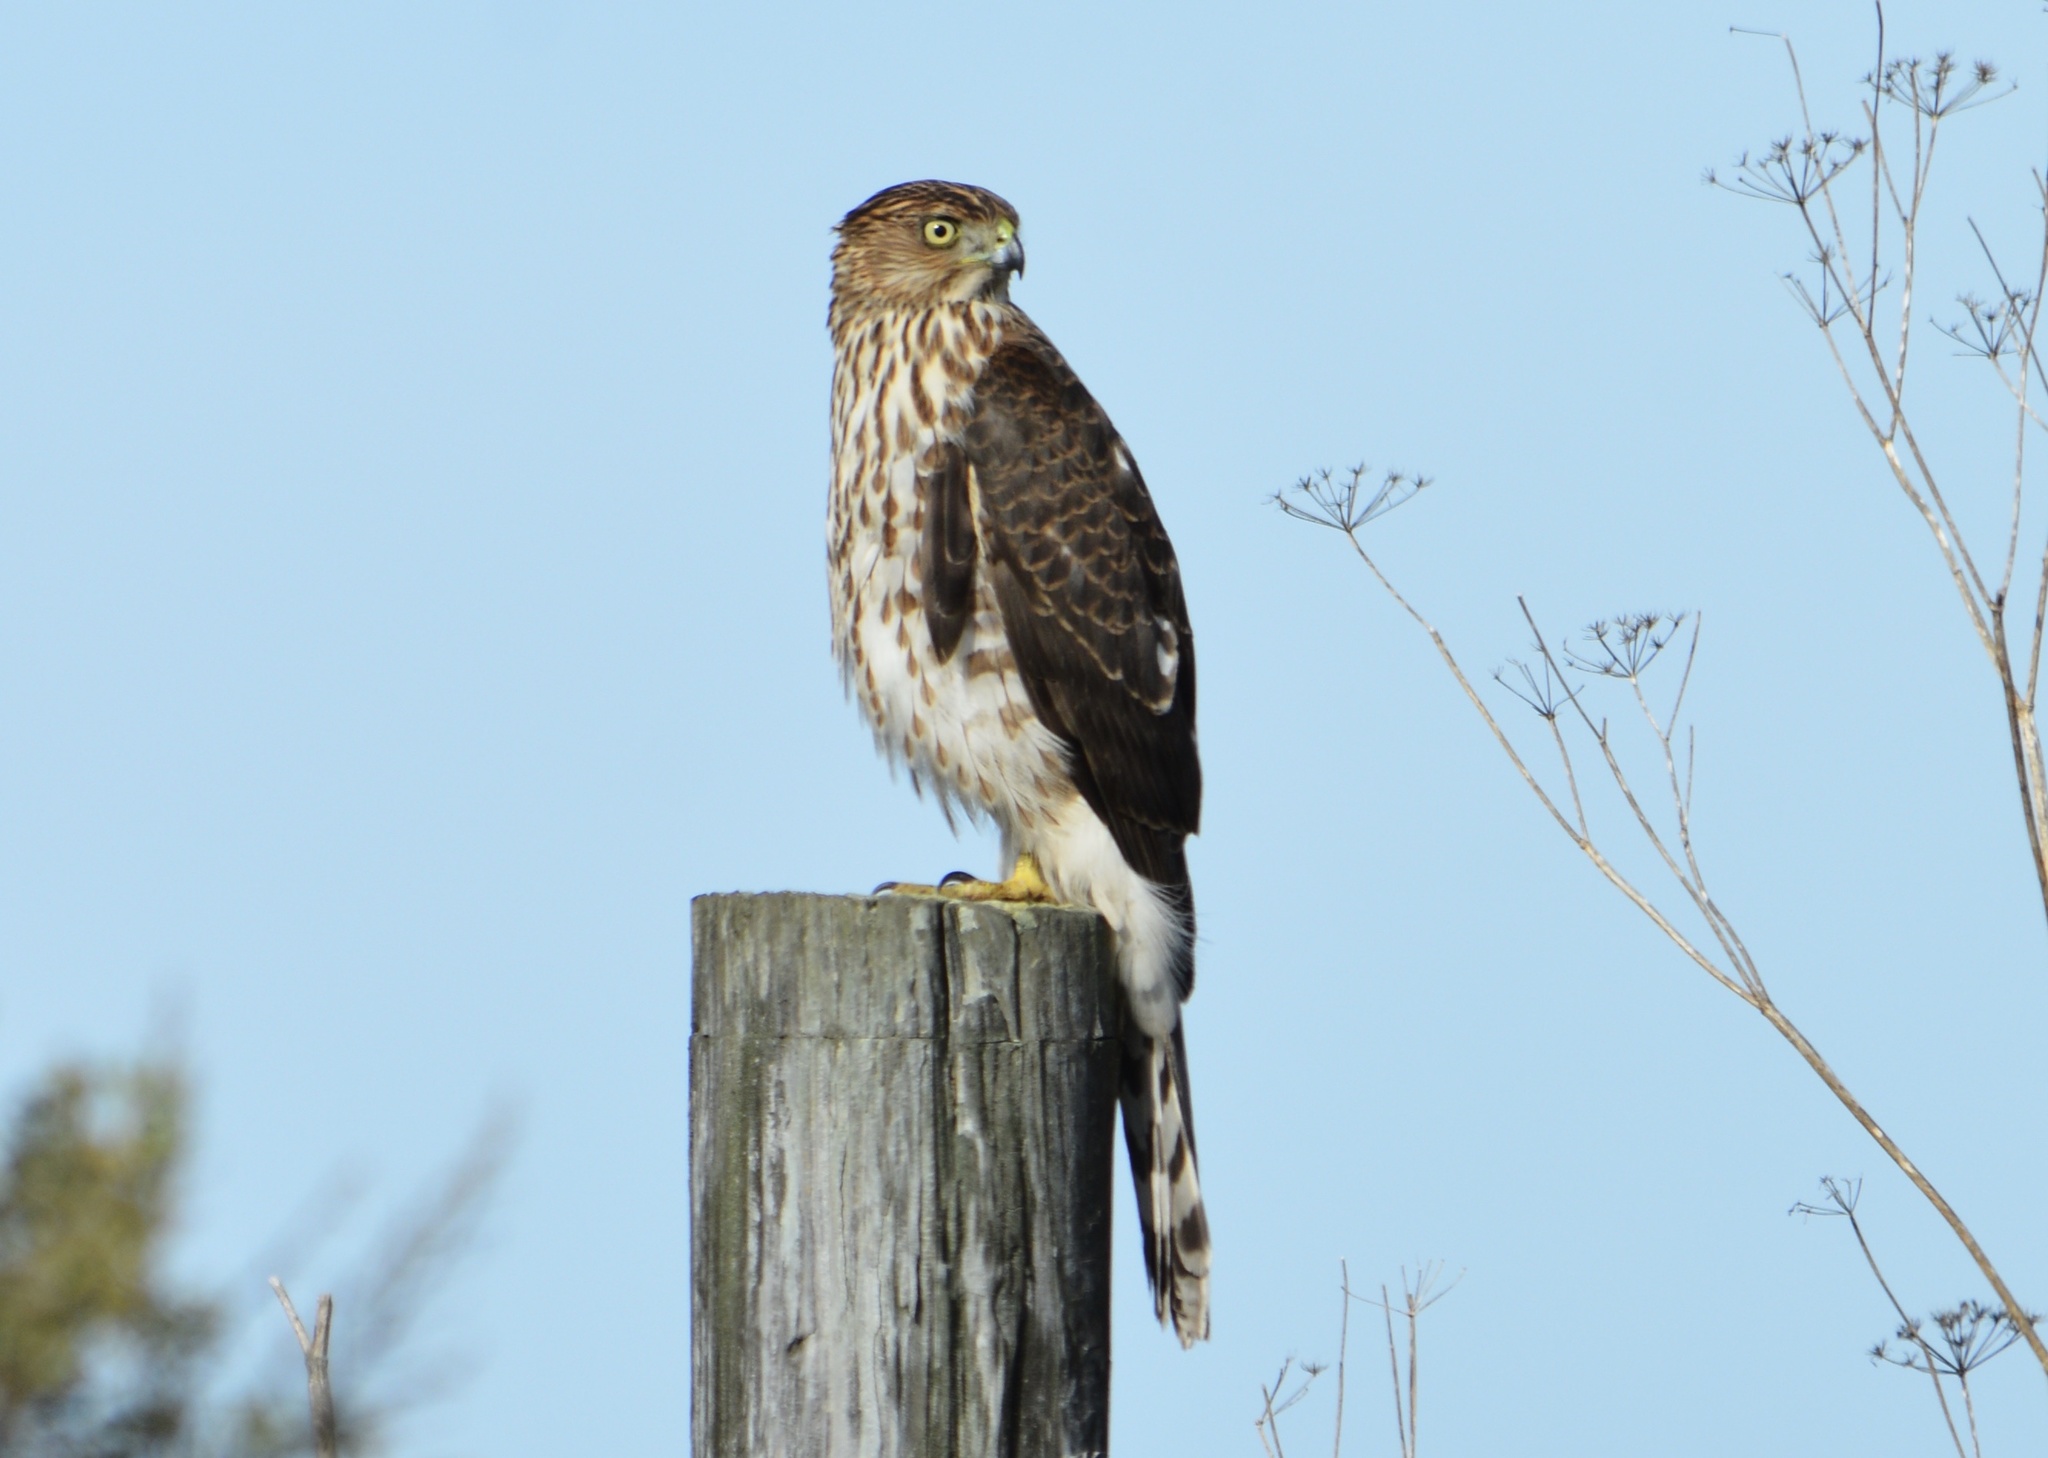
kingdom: Animalia
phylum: Chordata
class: Aves
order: Accipitriformes
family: Accipitridae
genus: Accipiter
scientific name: Accipiter cooperii
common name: Cooper's hawk
